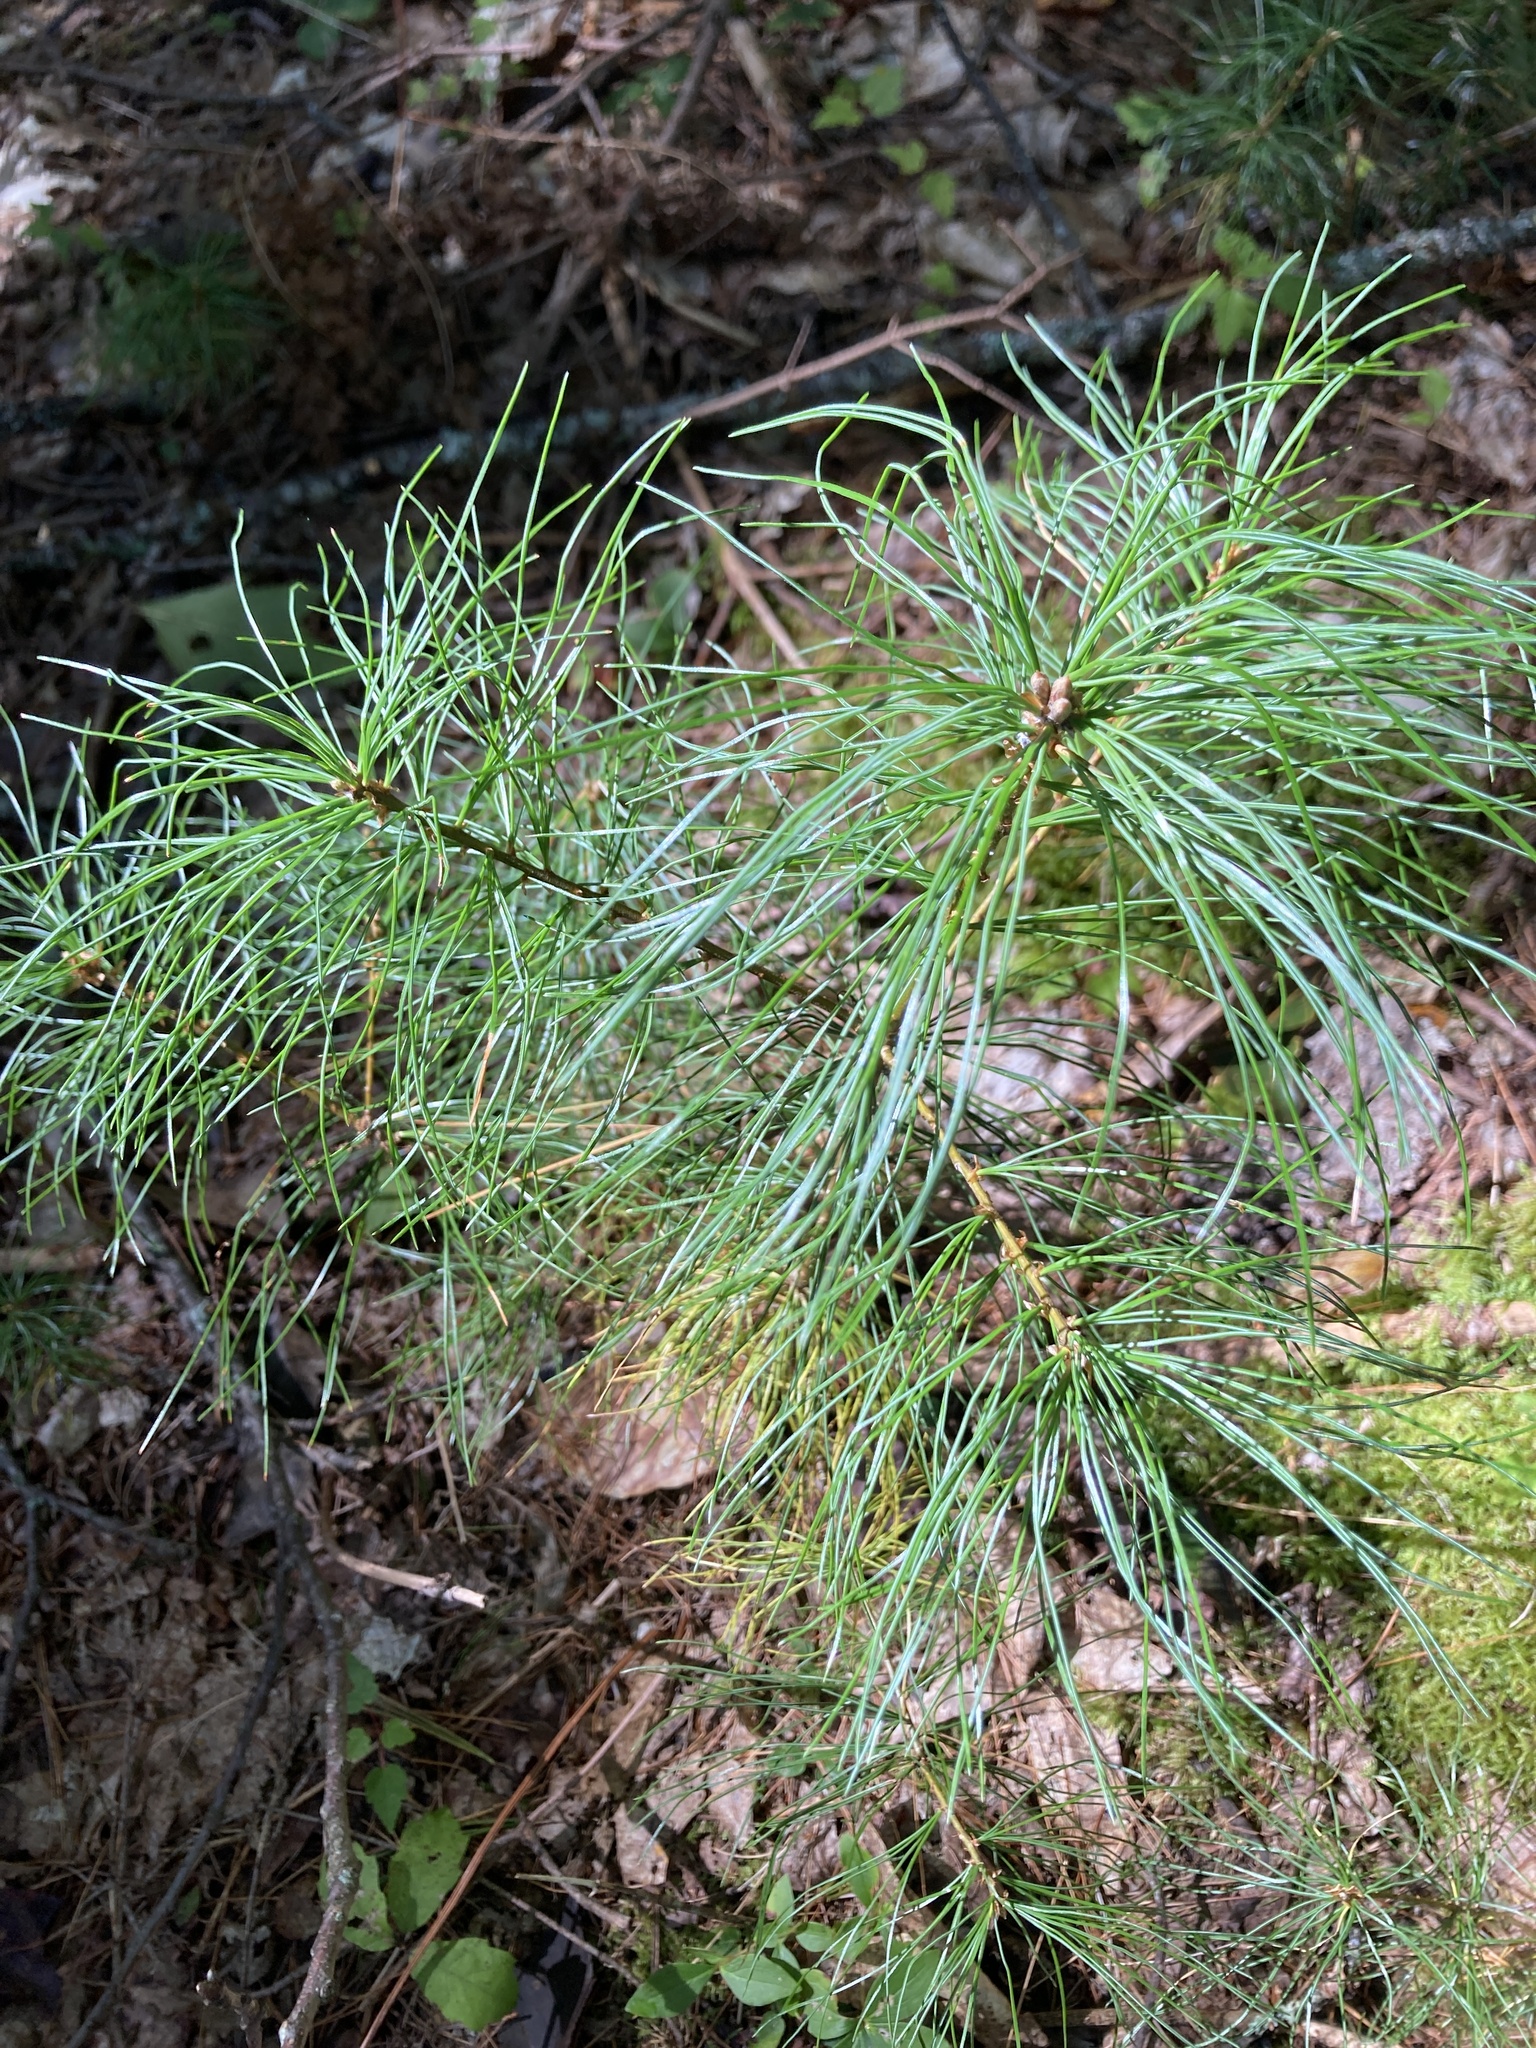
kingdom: Plantae
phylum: Tracheophyta
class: Pinopsida
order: Pinales
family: Pinaceae
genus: Pinus
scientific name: Pinus strobus
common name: Weymouth pine
